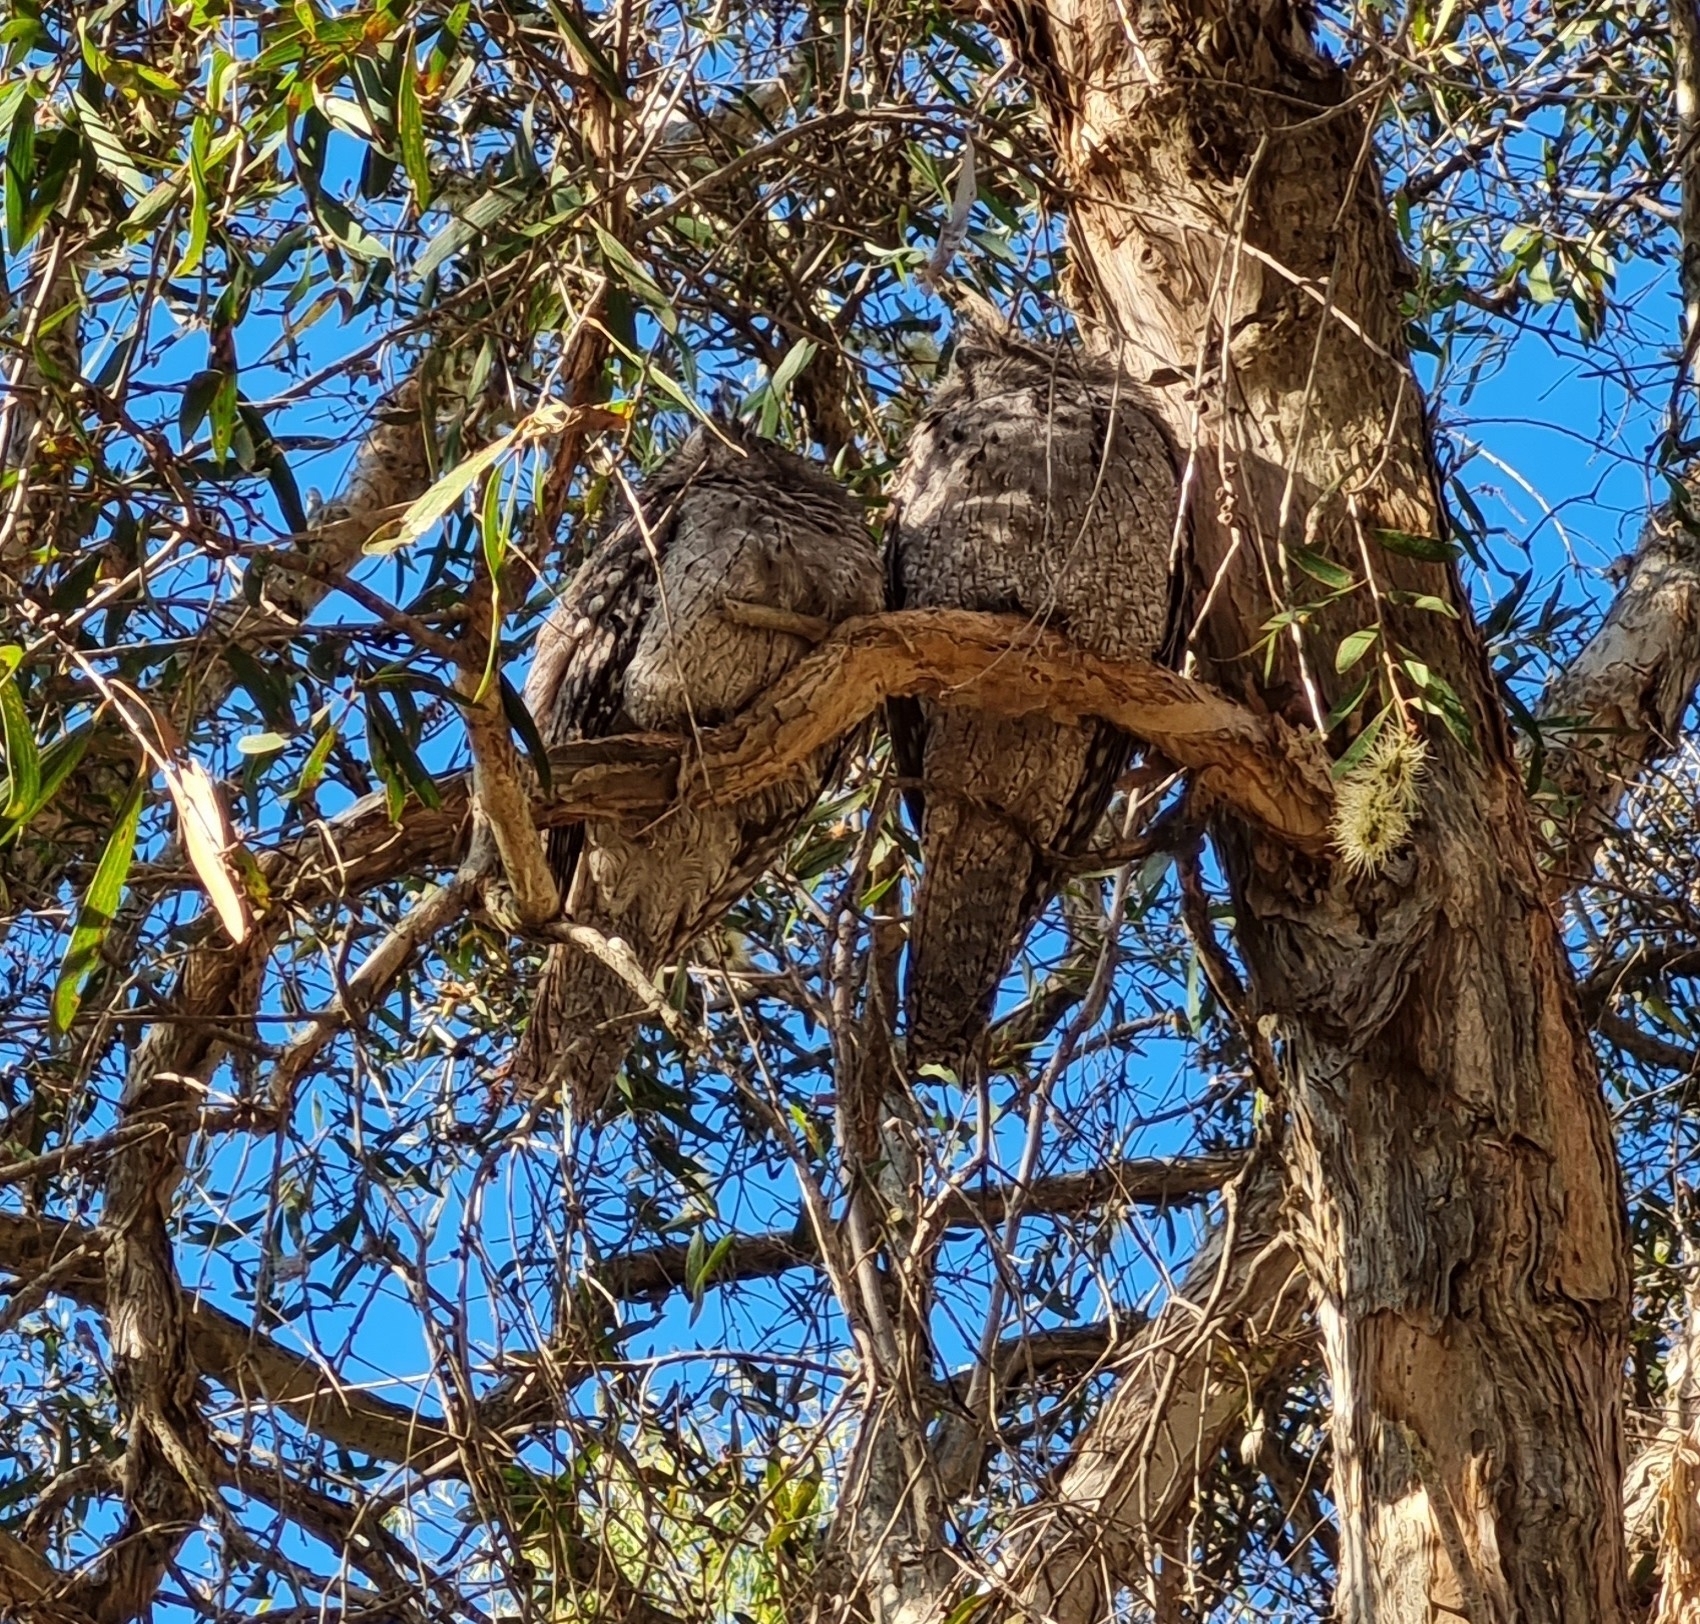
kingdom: Animalia
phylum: Chordata
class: Aves
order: Caprimulgiformes
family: Podargidae
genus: Podargus
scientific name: Podargus strigoides
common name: Tawny frogmouth
